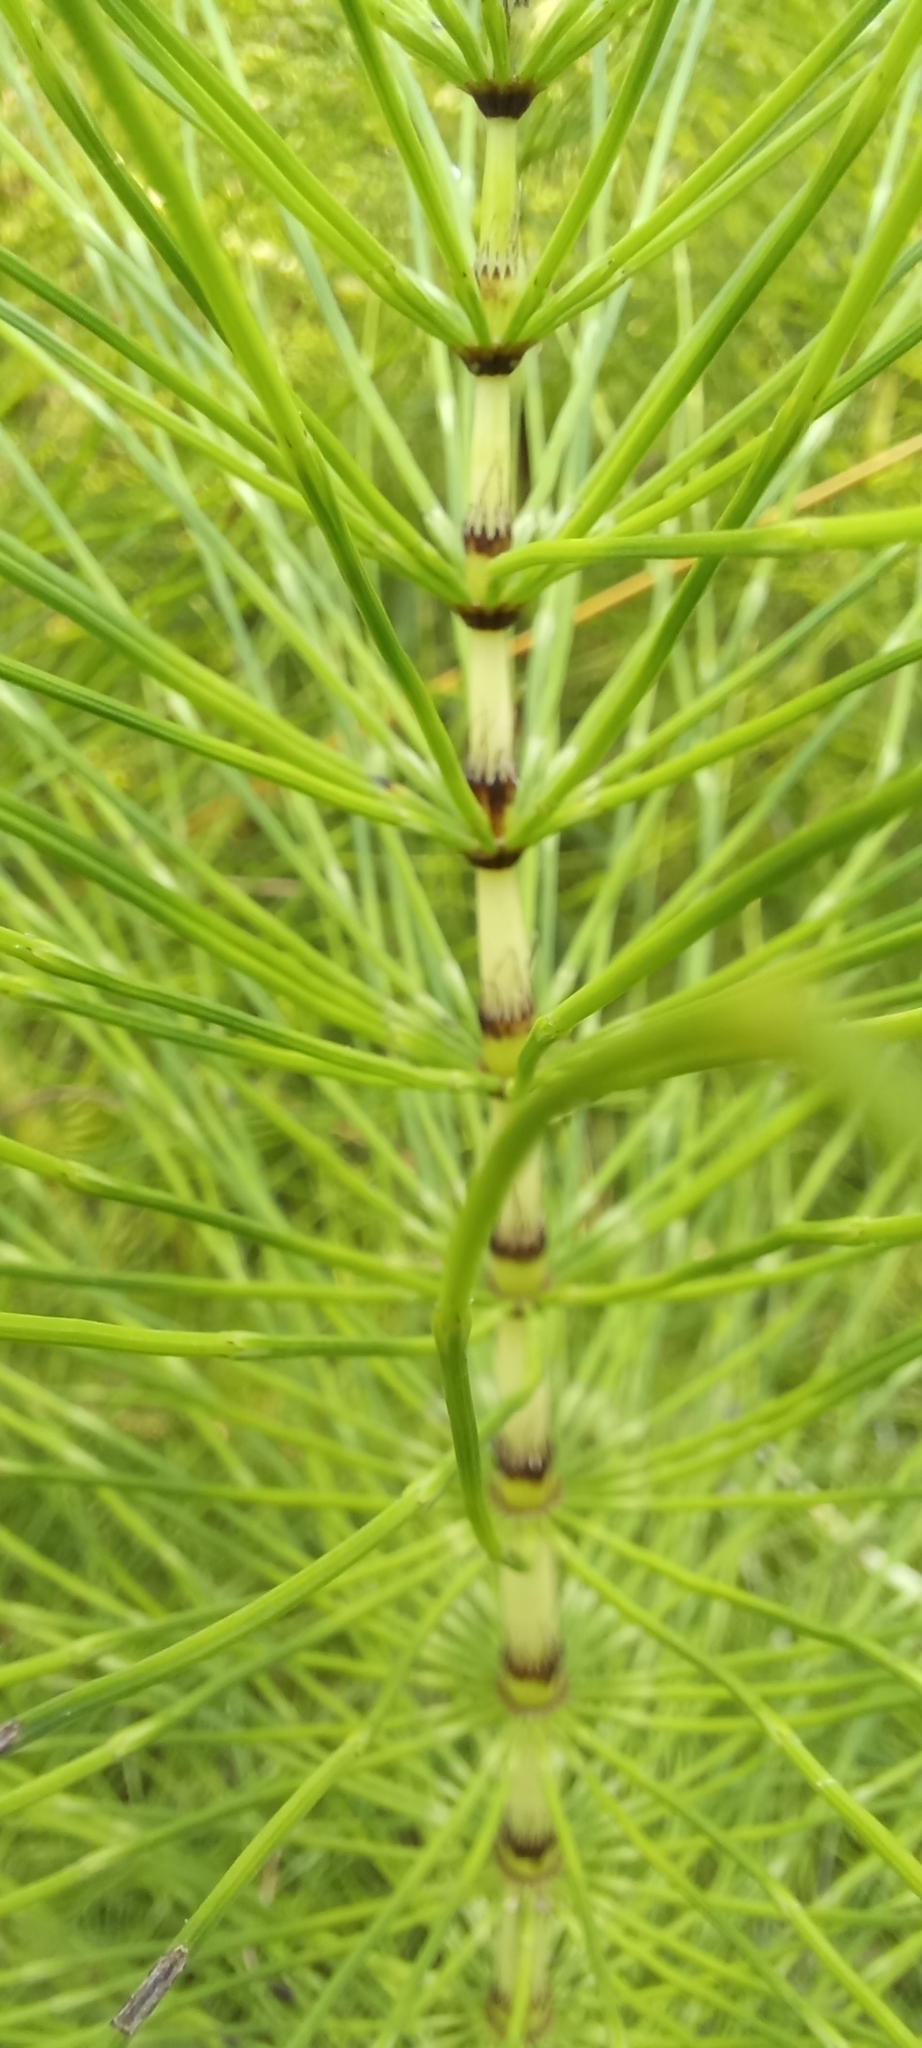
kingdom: Plantae
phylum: Tracheophyta
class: Polypodiopsida
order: Equisetales
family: Equisetaceae
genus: Equisetum
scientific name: Equisetum telmateia
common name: Great horsetail
